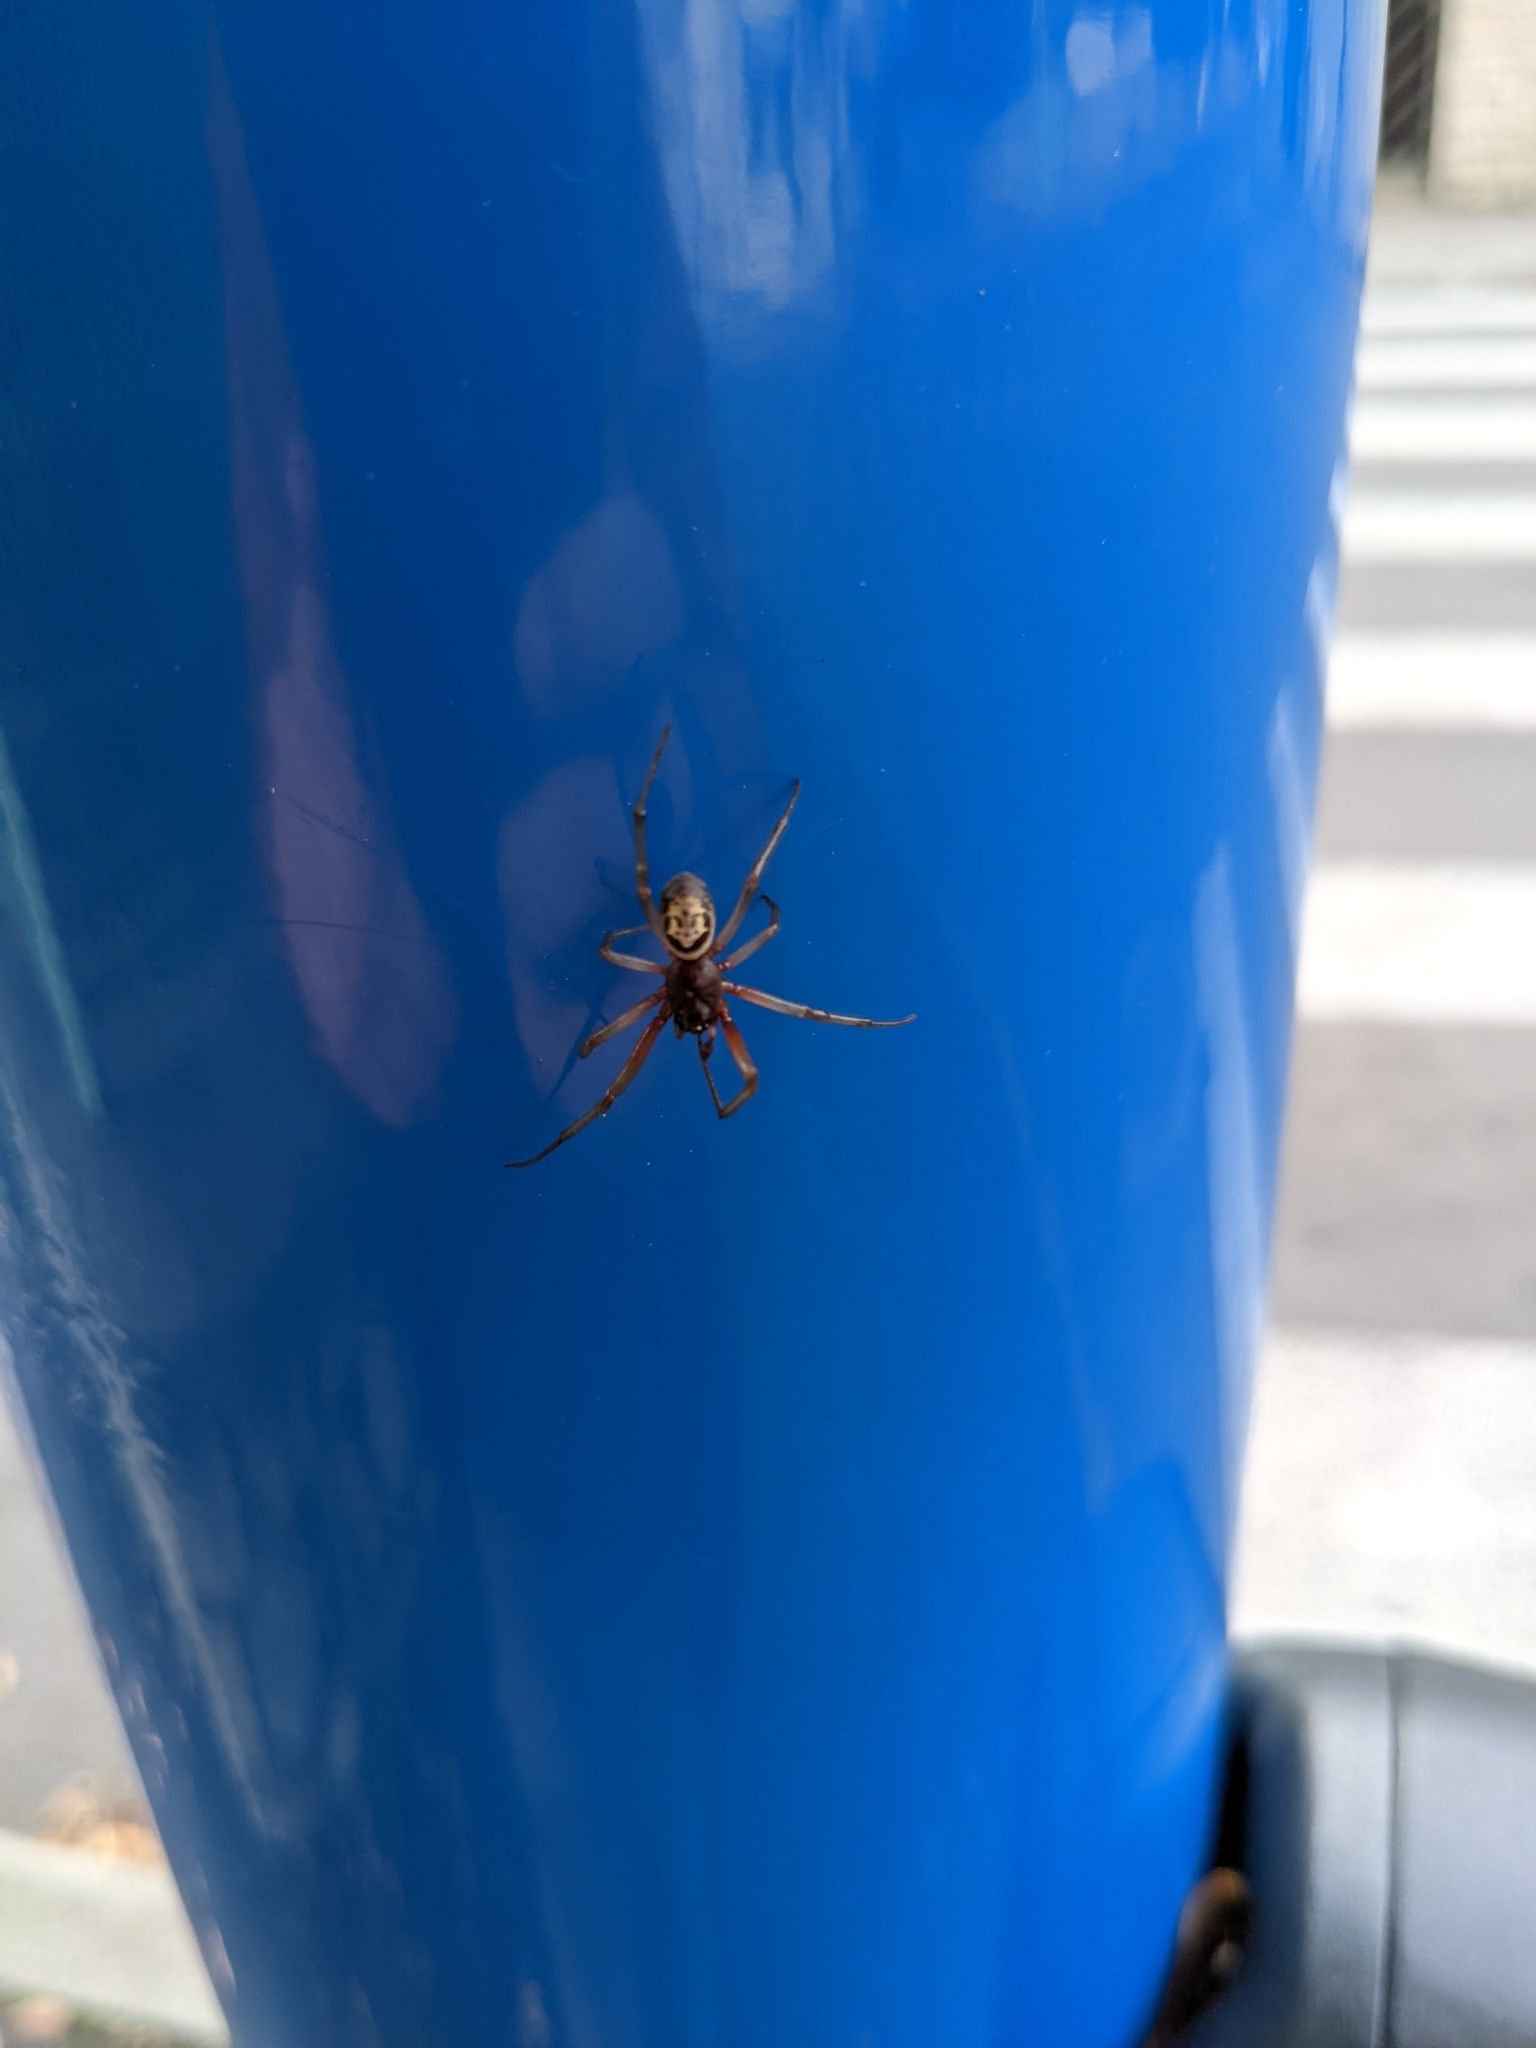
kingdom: Animalia
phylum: Arthropoda
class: Arachnida
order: Araneae
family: Theridiidae
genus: Steatoda
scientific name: Steatoda nobilis
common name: Cobweb weaver
